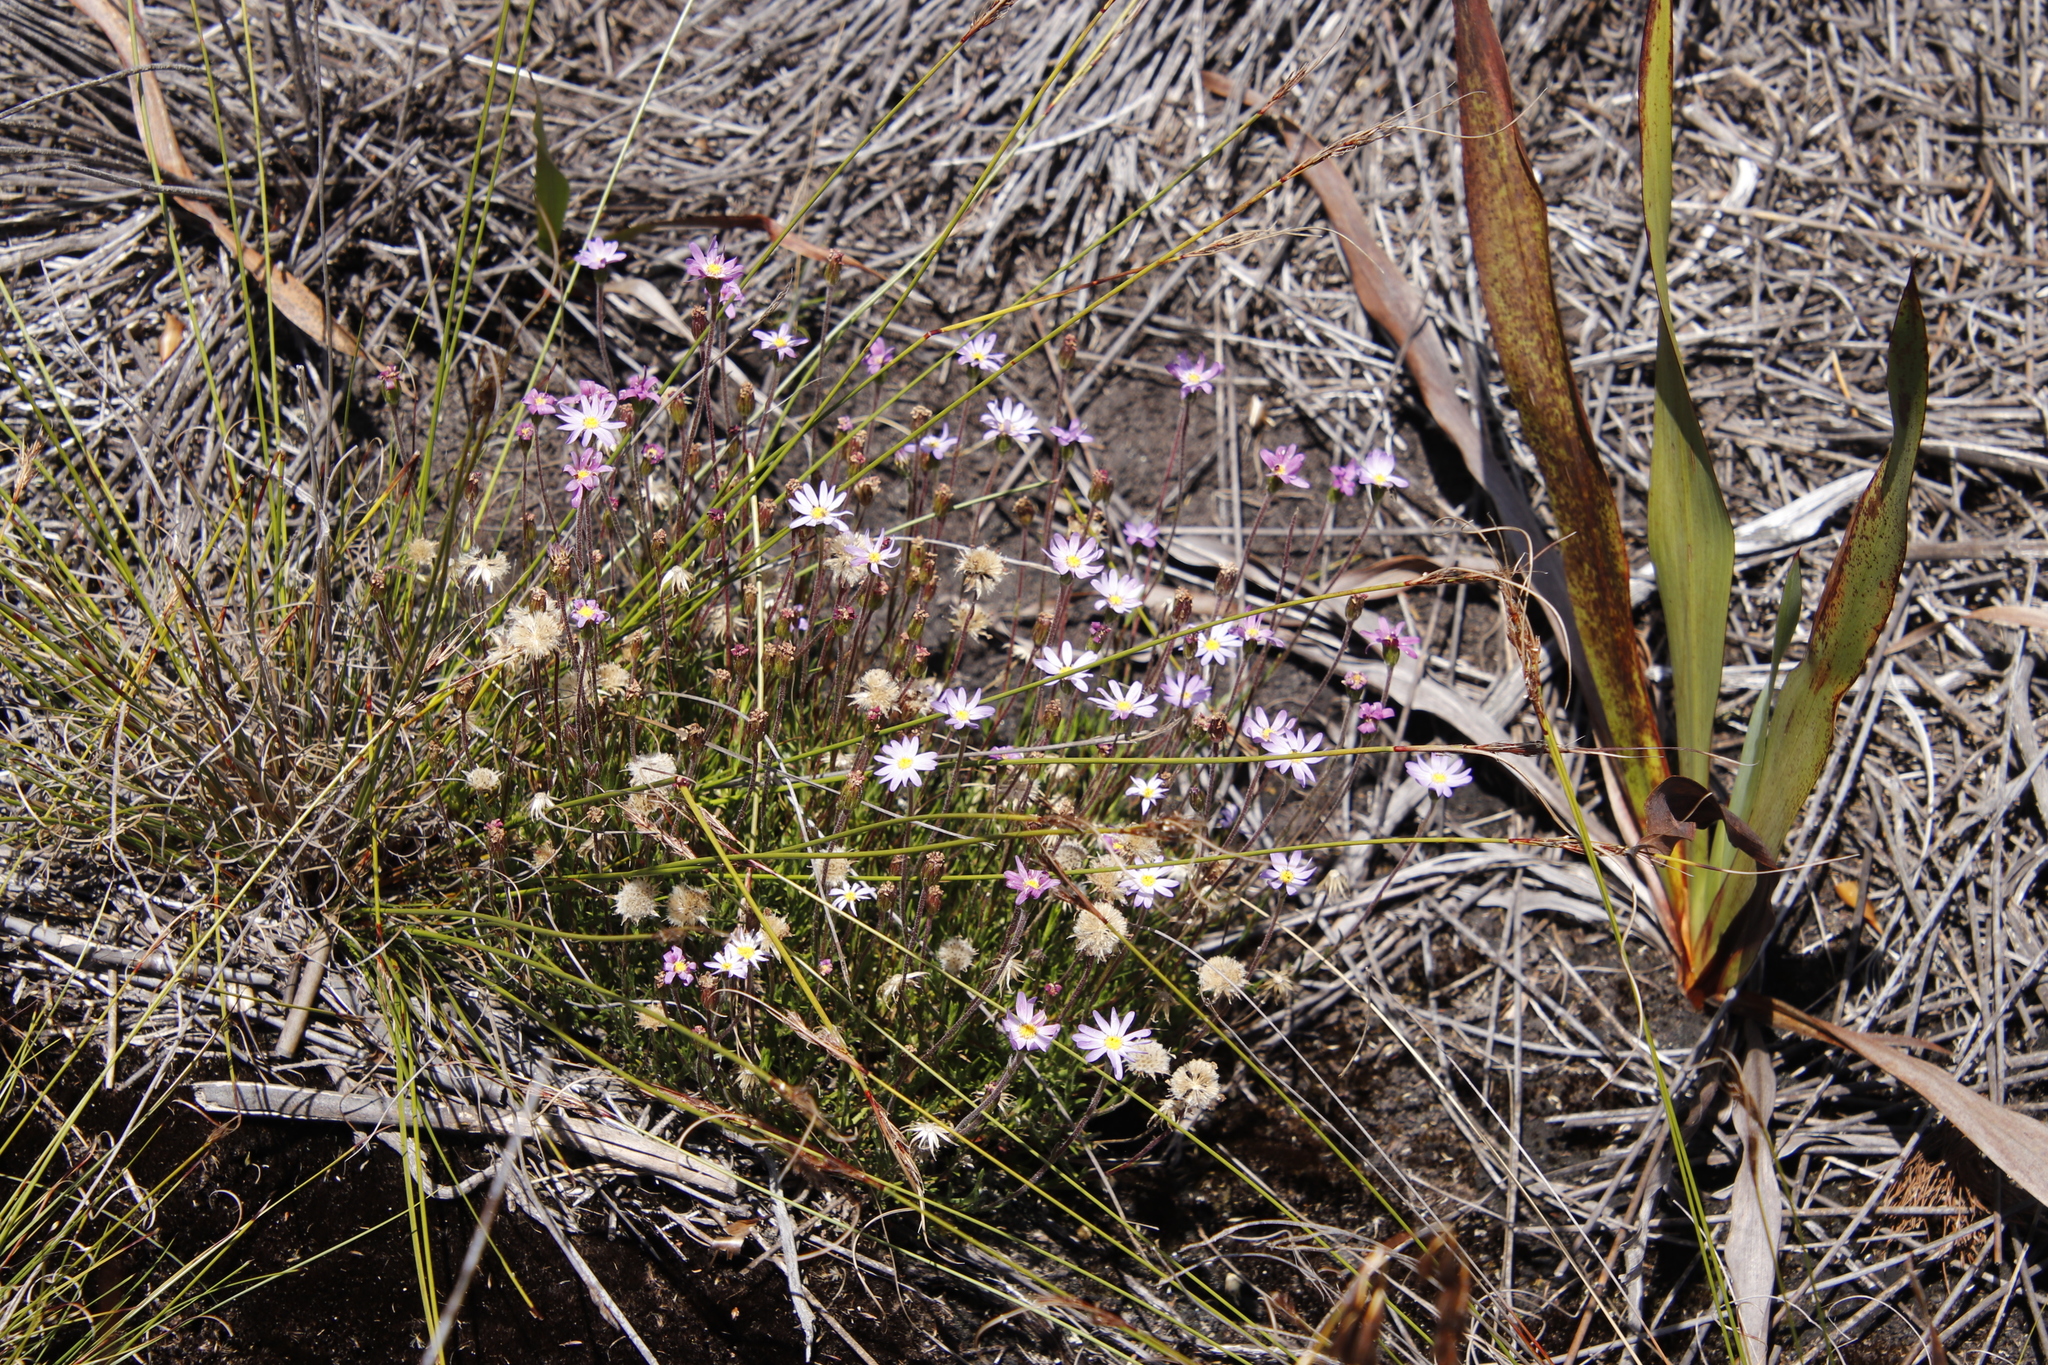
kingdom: Plantae
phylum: Tracheophyta
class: Magnoliopsida
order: Asterales
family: Asteraceae
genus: Zyrphelis
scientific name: Zyrphelis taxifolia
